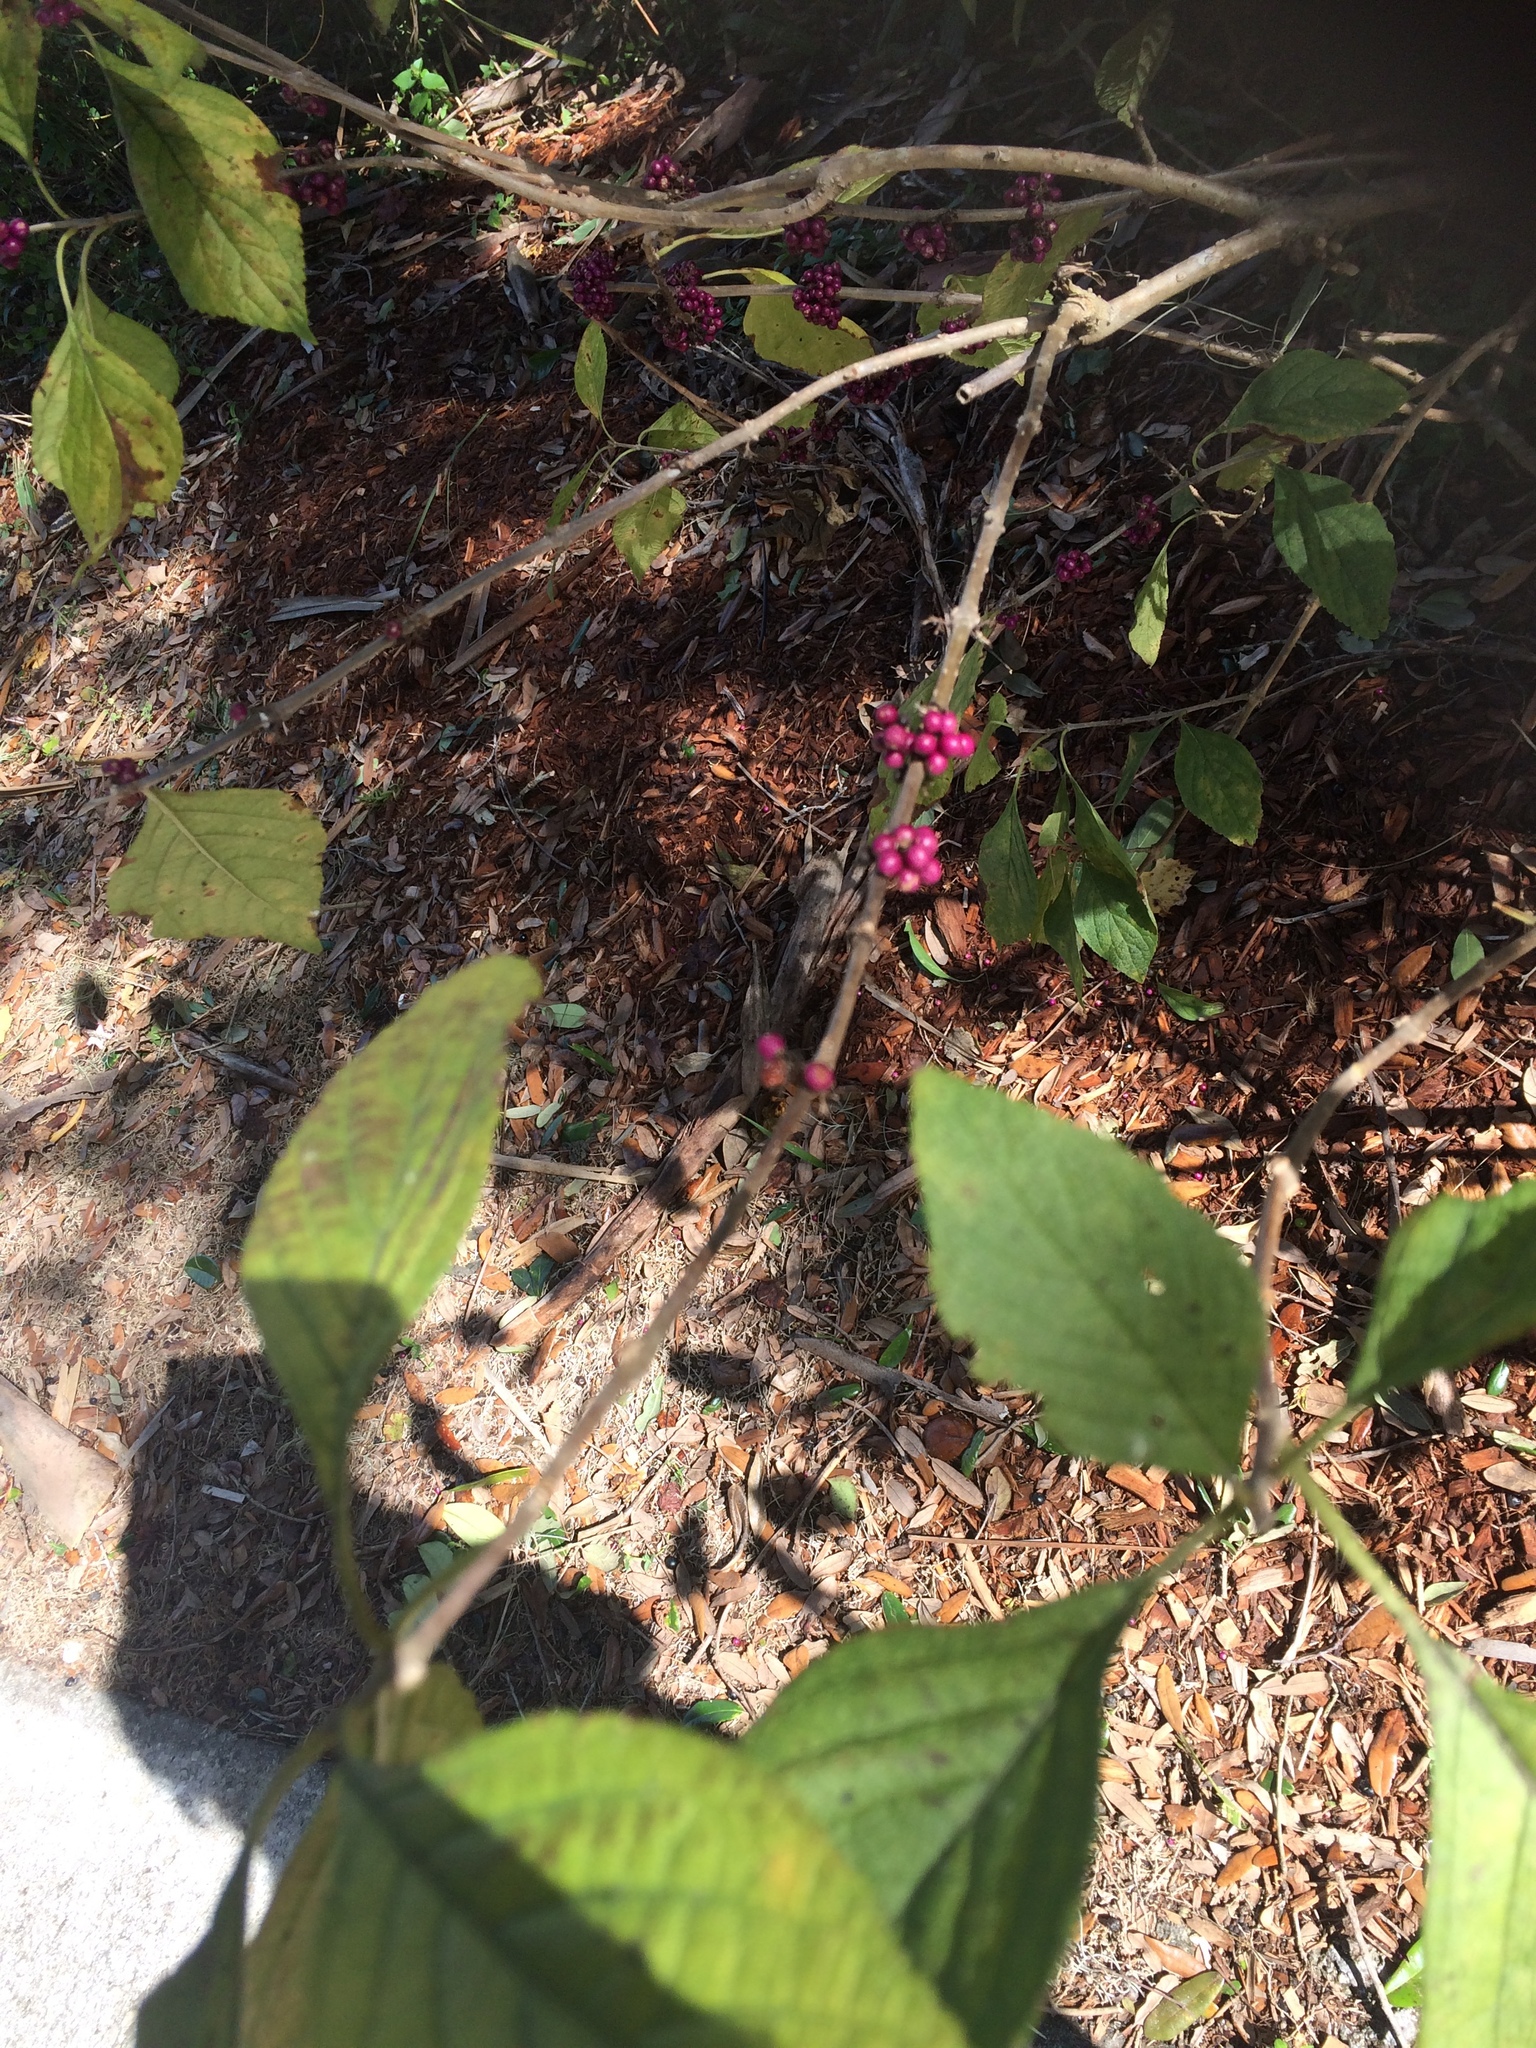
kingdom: Plantae
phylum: Tracheophyta
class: Magnoliopsida
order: Lamiales
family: Lamiaceae
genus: Callicarpa
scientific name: Callicarpa americana
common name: American beautyberry
